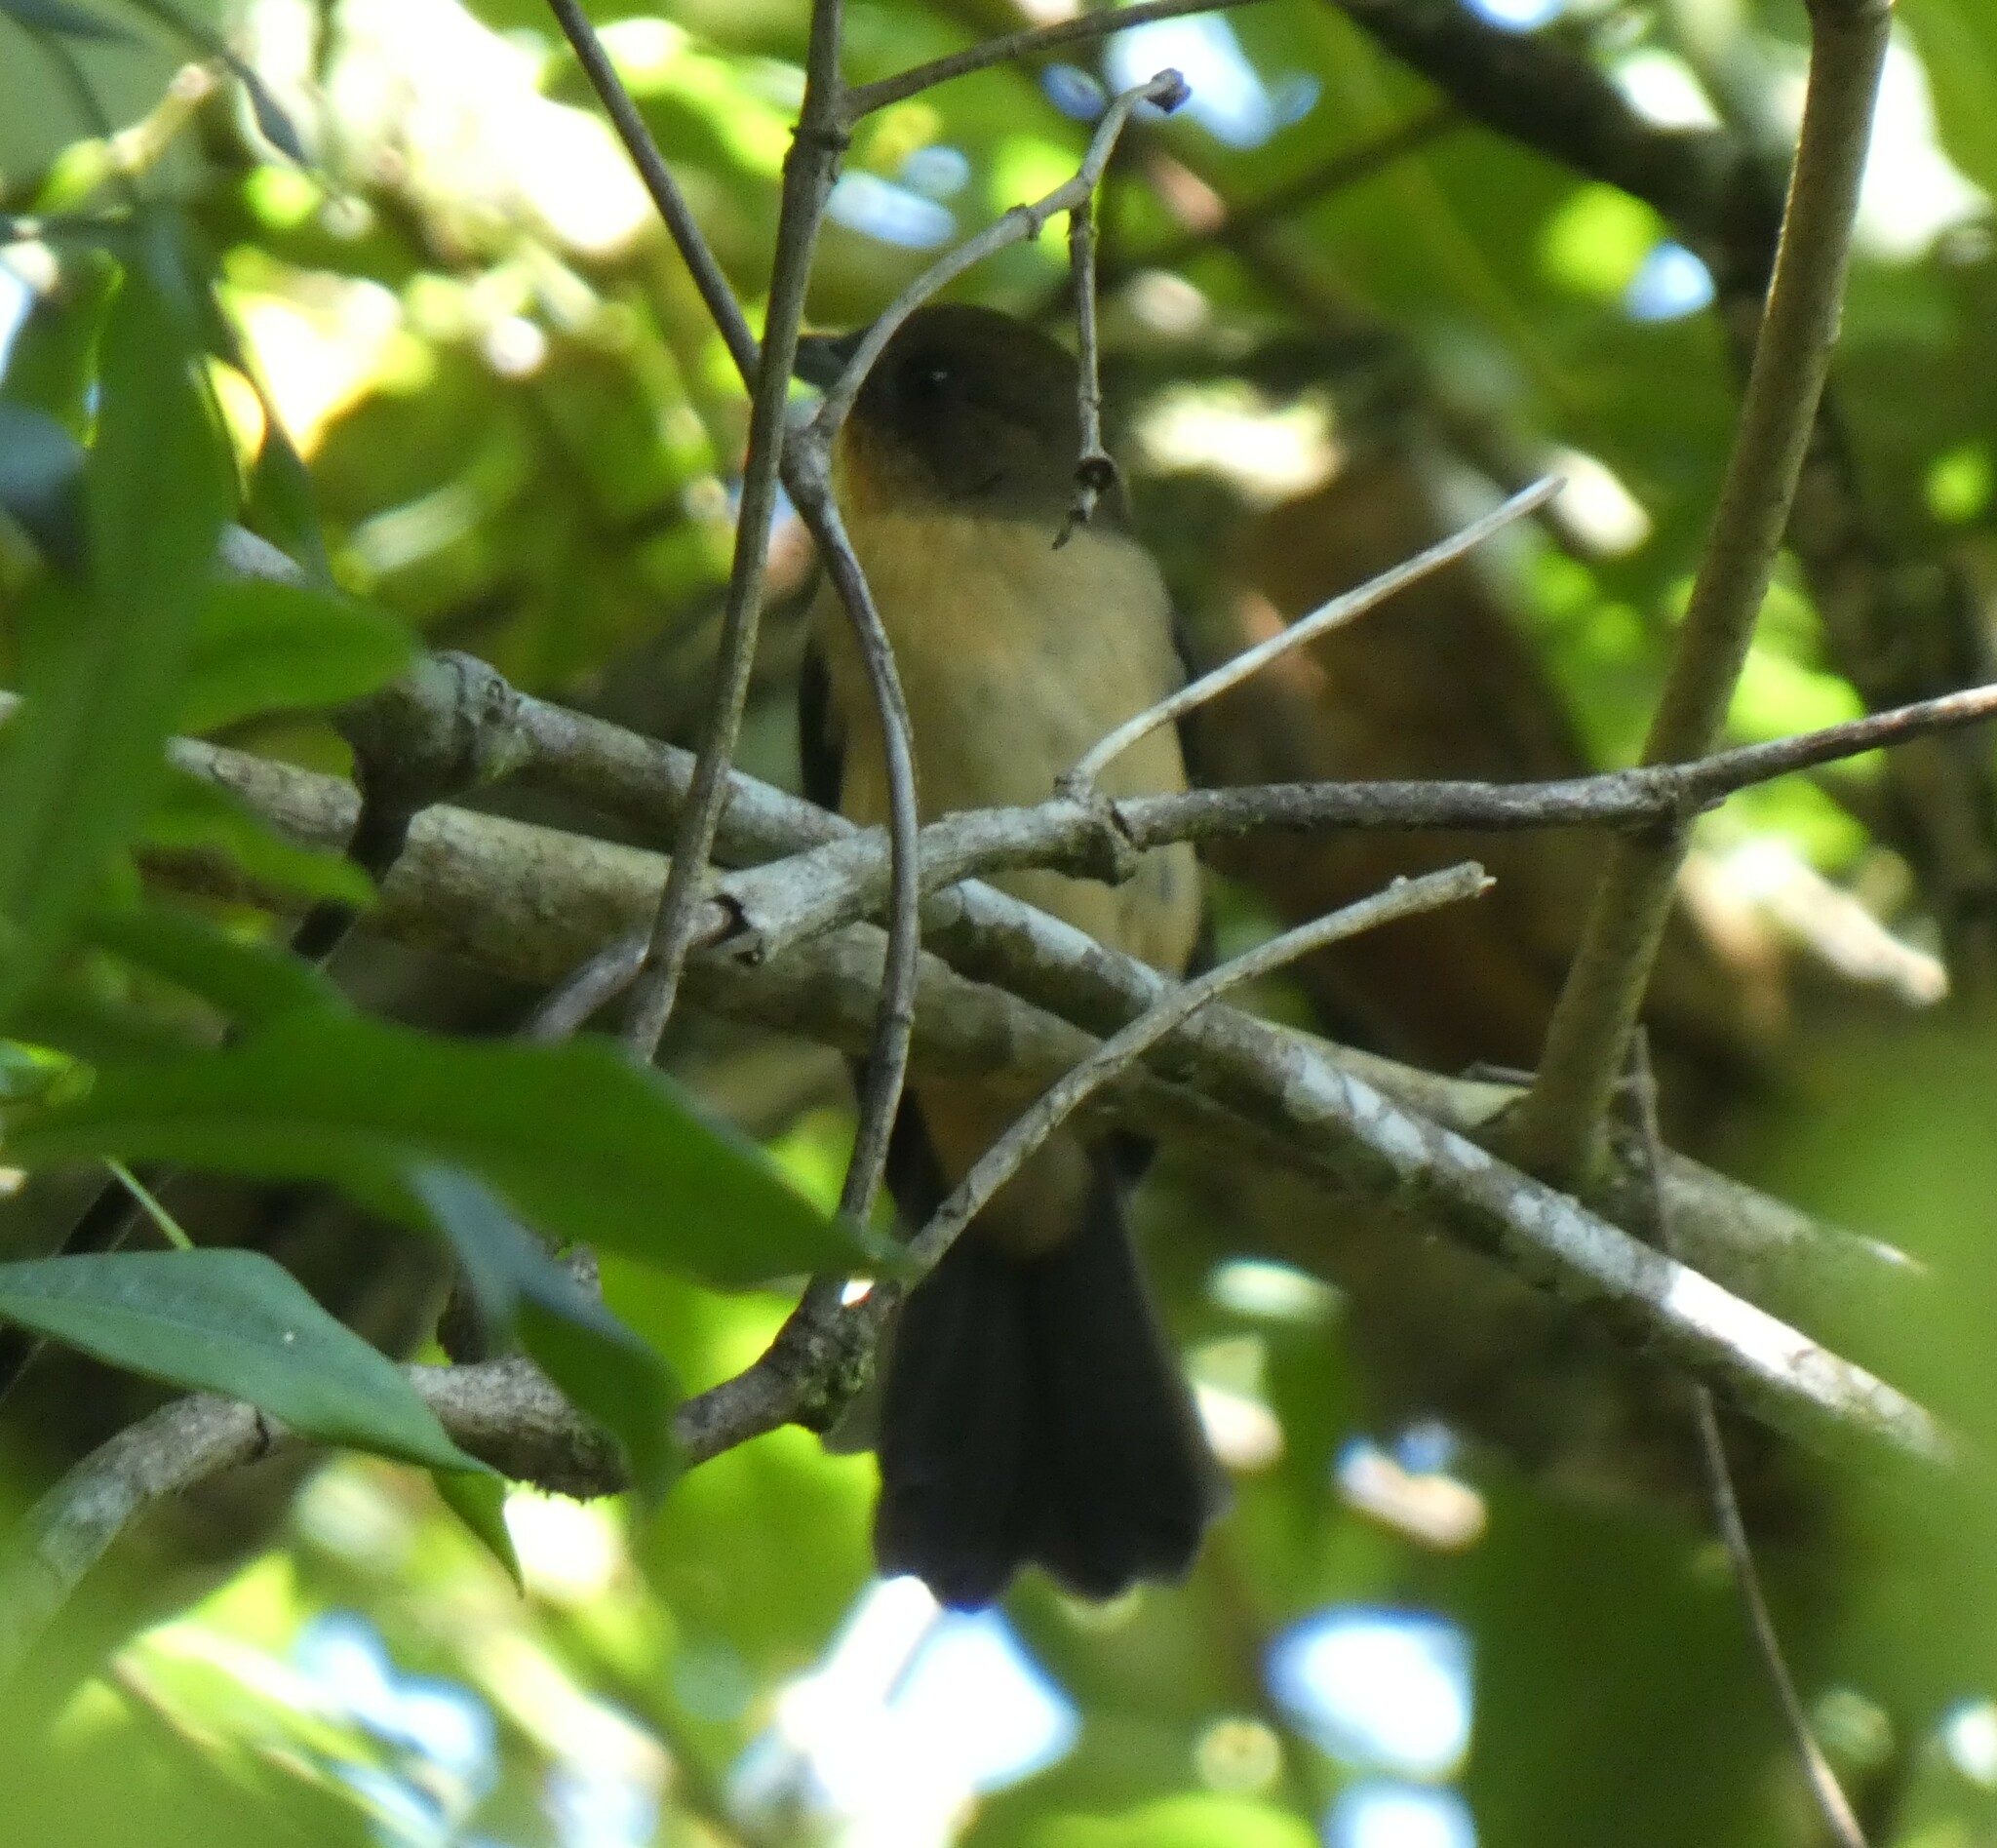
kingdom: Animalia
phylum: Chordata
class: Aves
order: Passeriformes
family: Thraupidae
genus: Trichothraupis
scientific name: Trichothraupis melanops
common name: Black-goggled tanager
